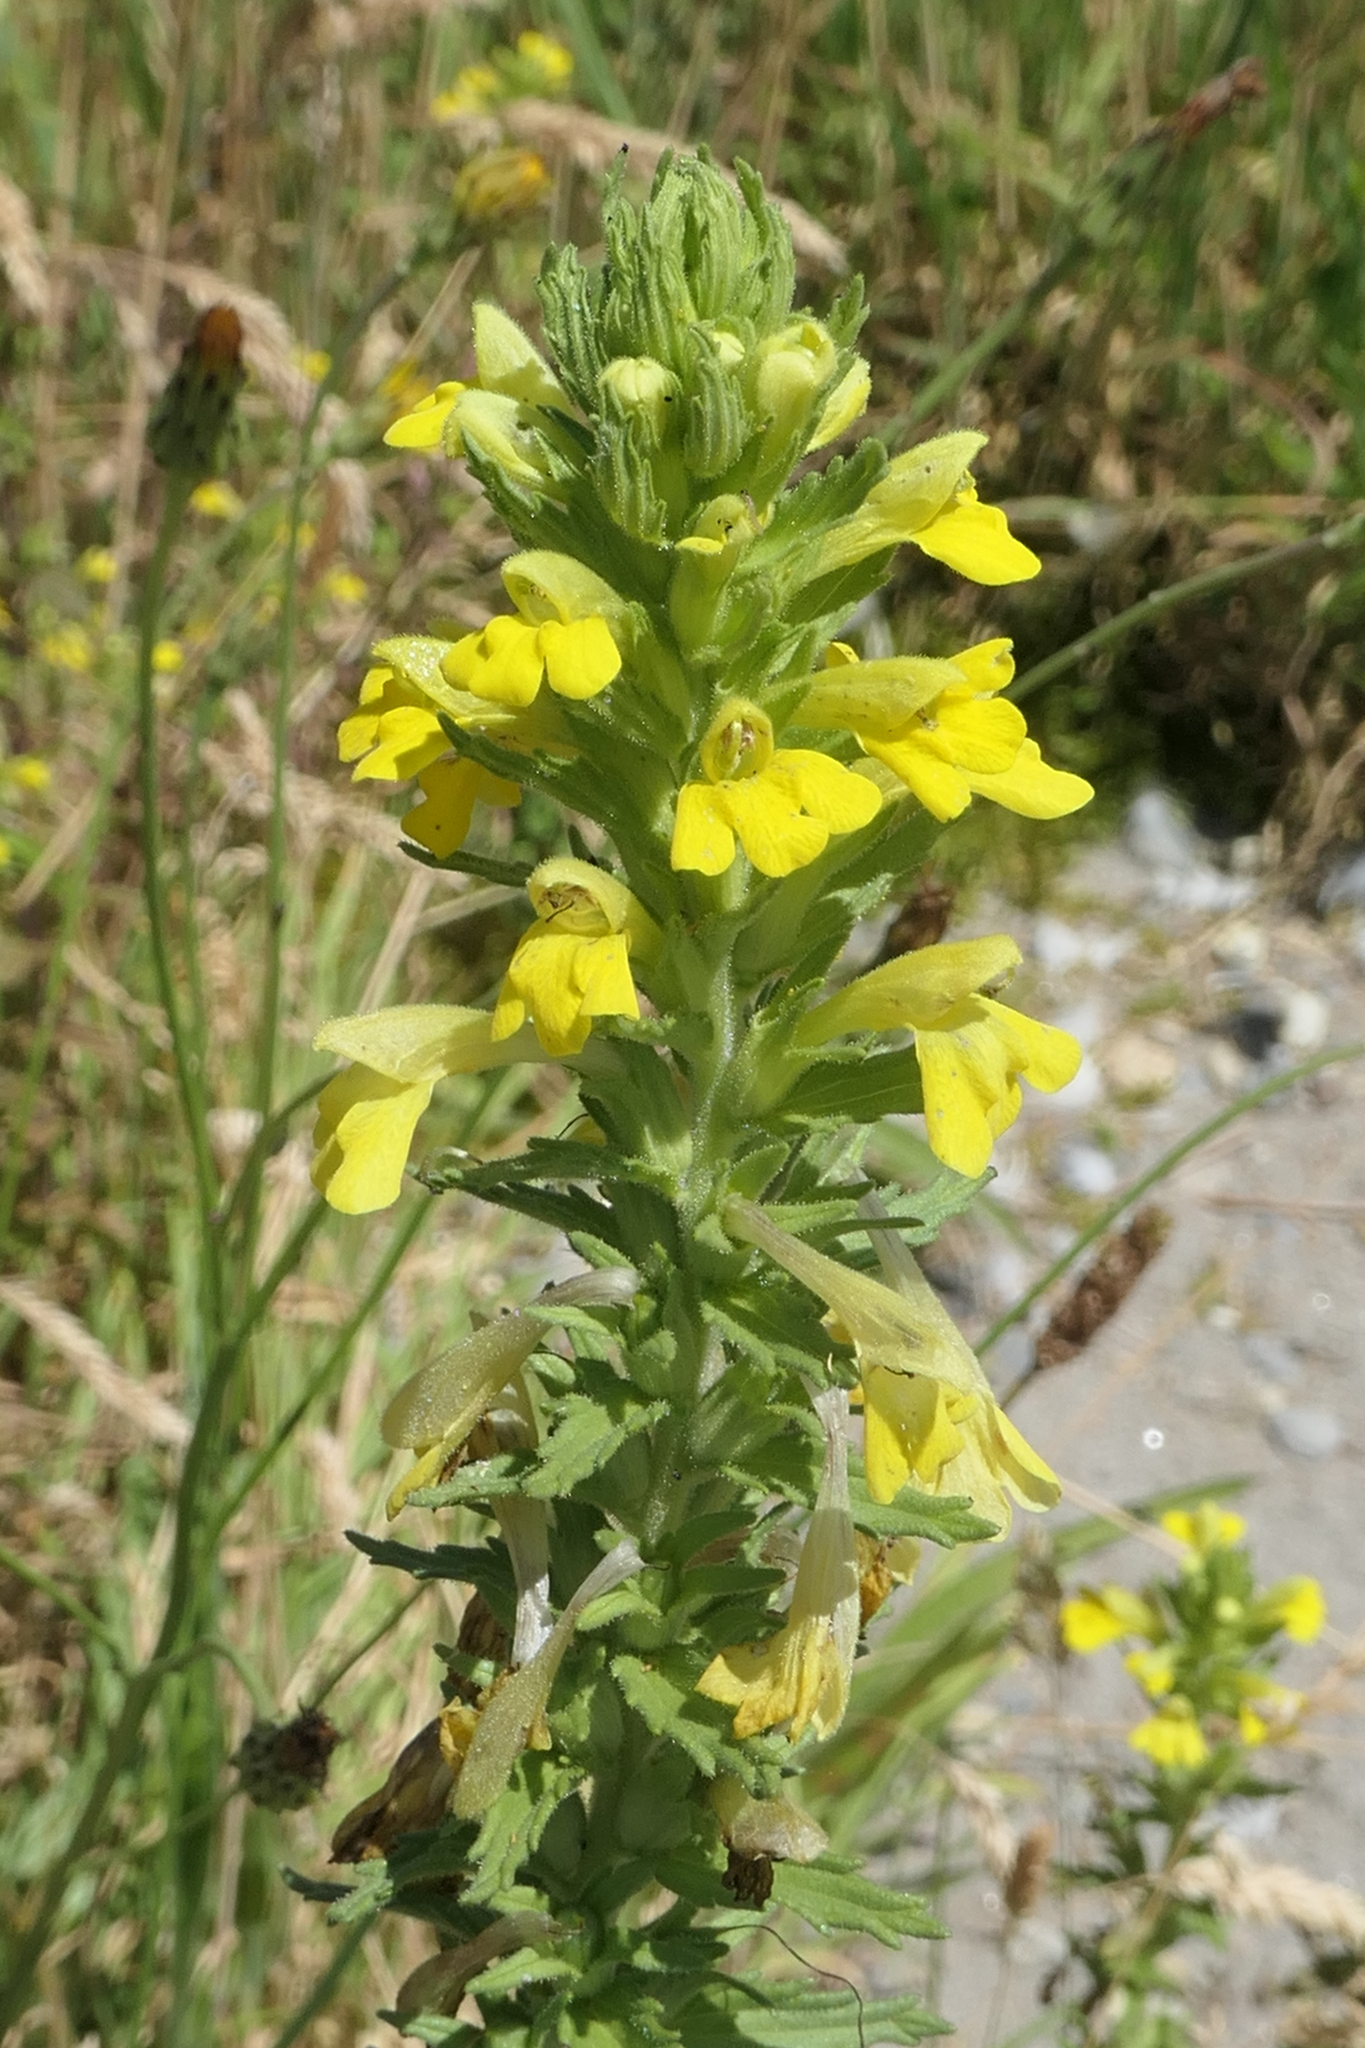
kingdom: Plantae
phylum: Tracheophyta
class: Magnoliopsida
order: Lamiales
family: Orobanchaceae
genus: Bellardia
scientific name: Bellardia viscosa
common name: Sticky parentucellia
